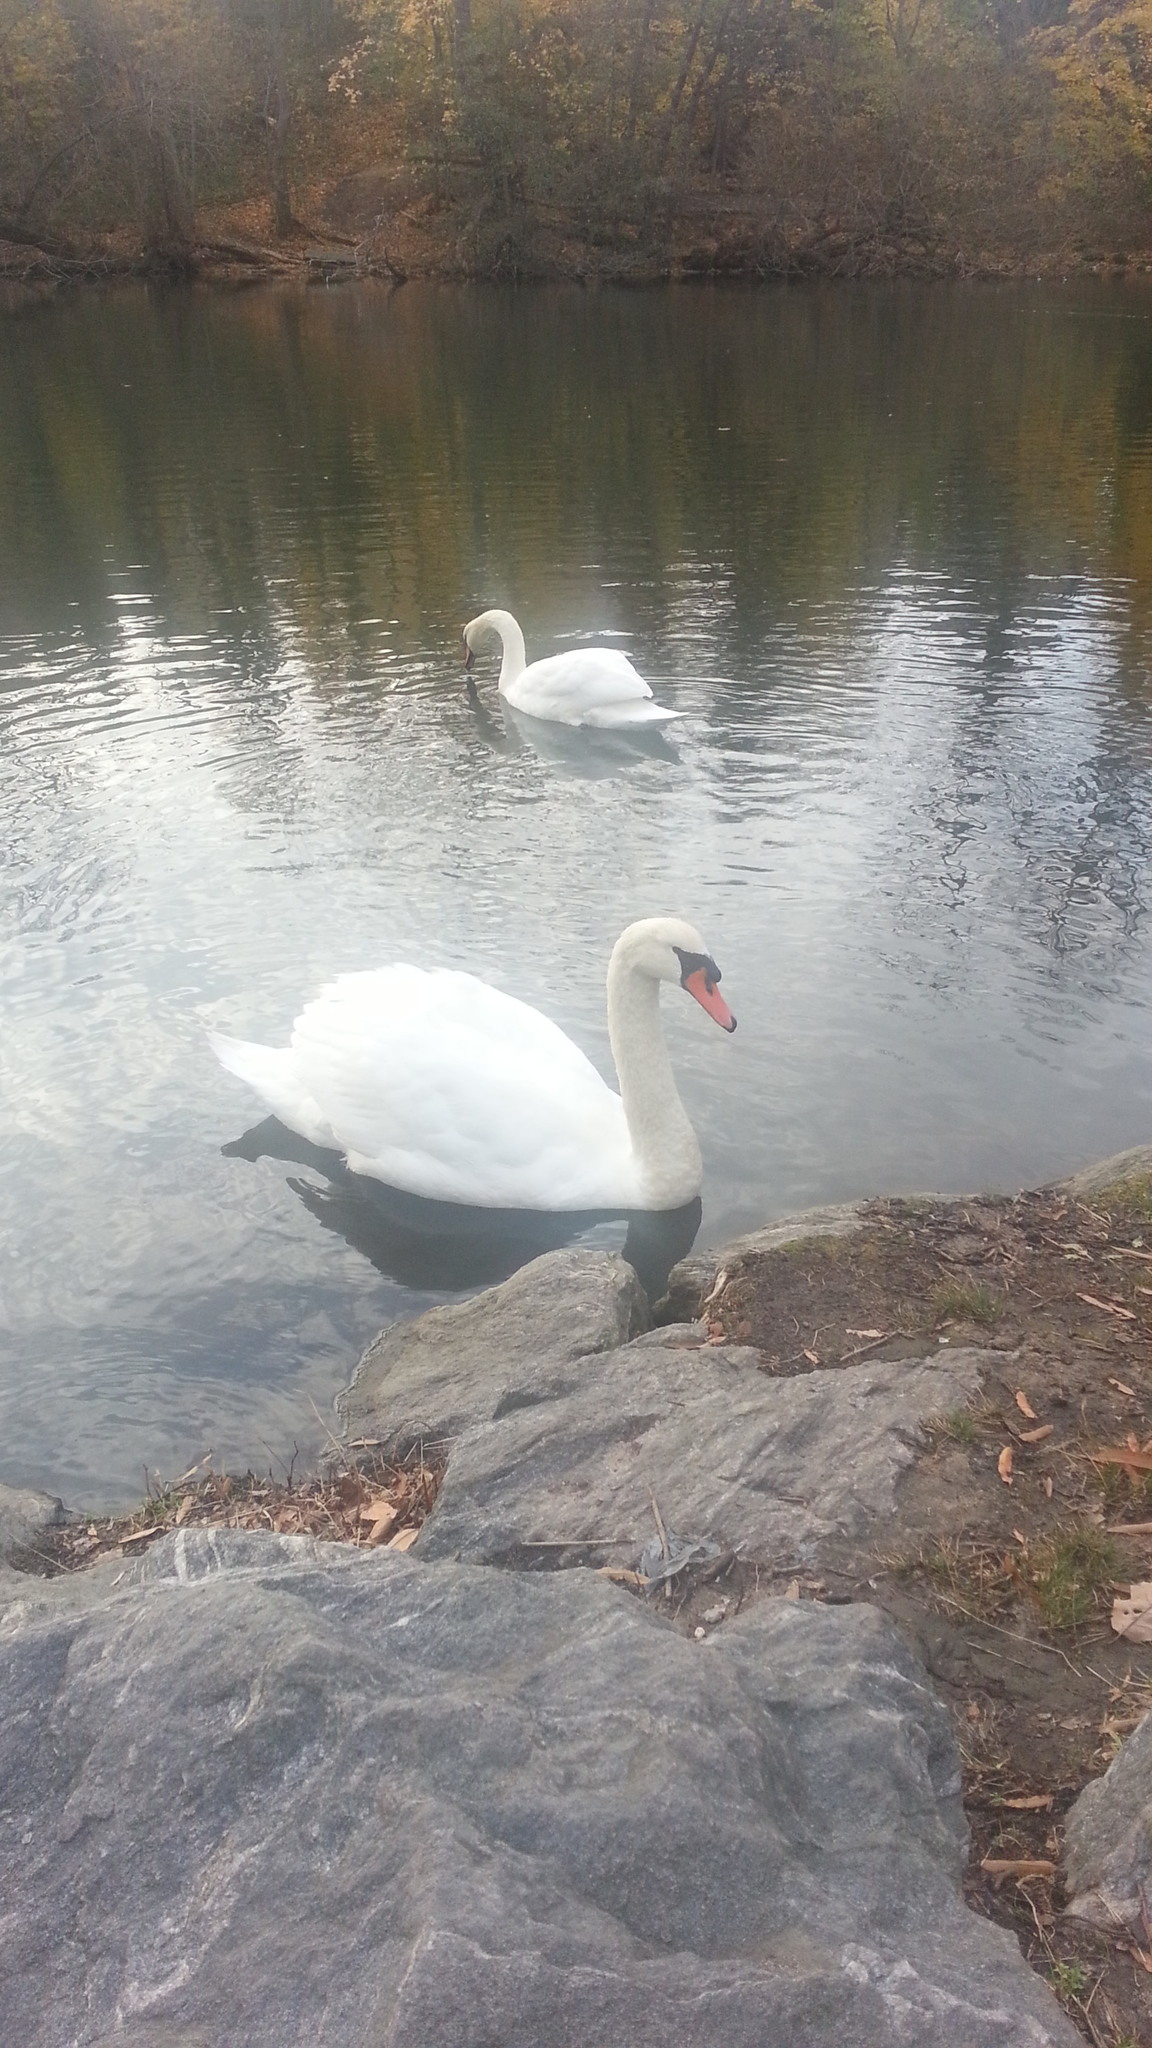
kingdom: Animalia
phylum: Chordata
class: Aves
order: Anseriformes
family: Anatidae
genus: Cygnus
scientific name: Cygnus olor
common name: Mute swan
